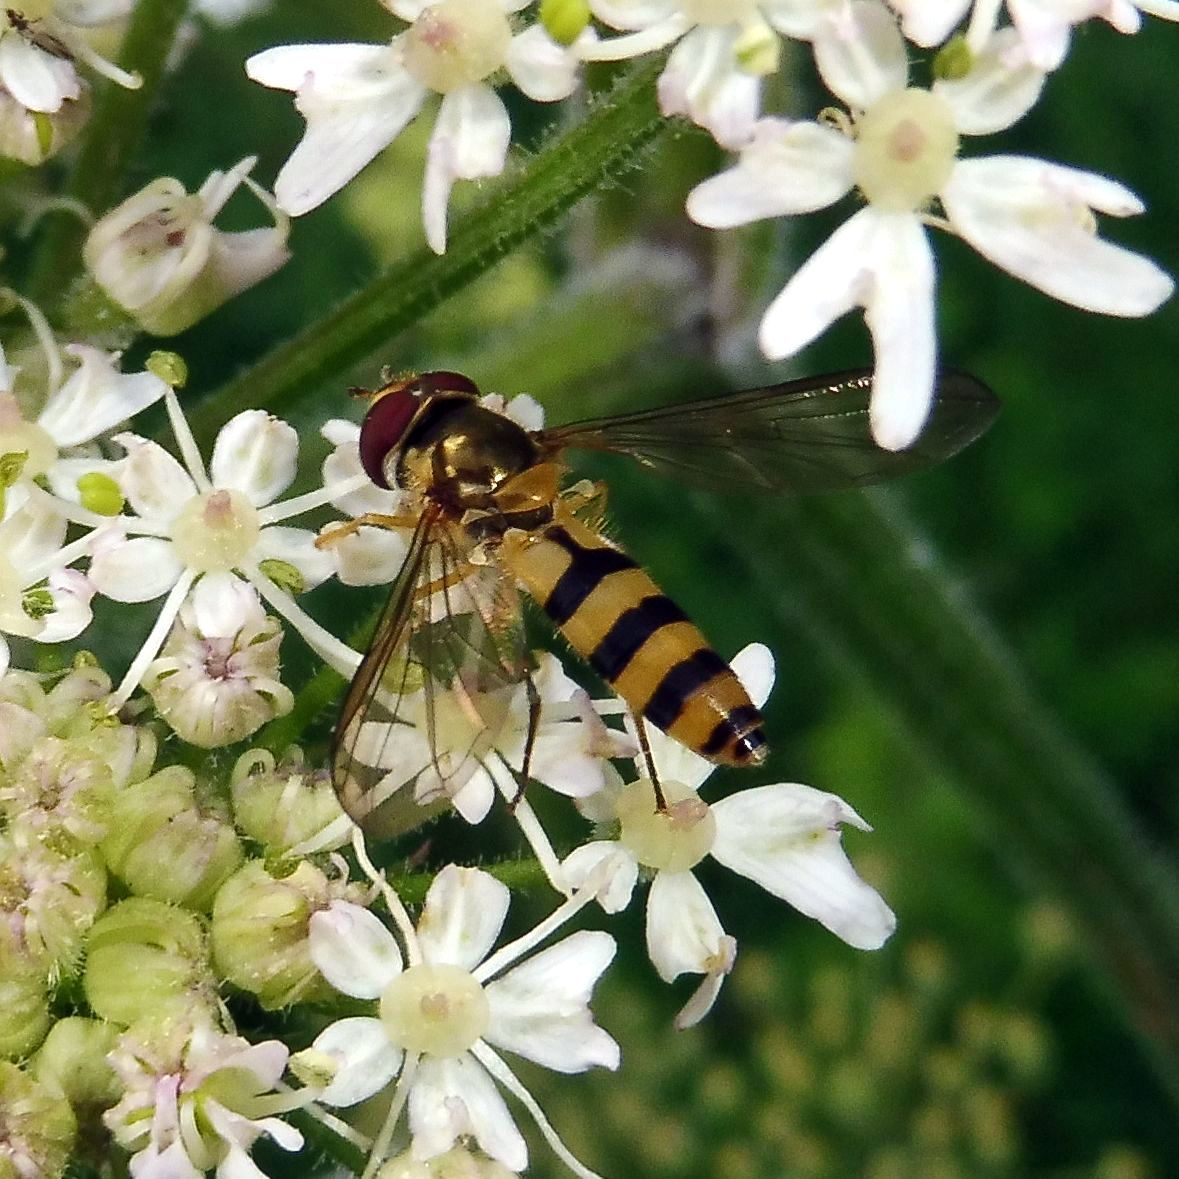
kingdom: Animalia
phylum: Arthropoda
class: Insecta
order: Diptera
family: Syrphidae
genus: Meliscaeva
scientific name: Meliscaeva cinctella
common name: American thintail fly
